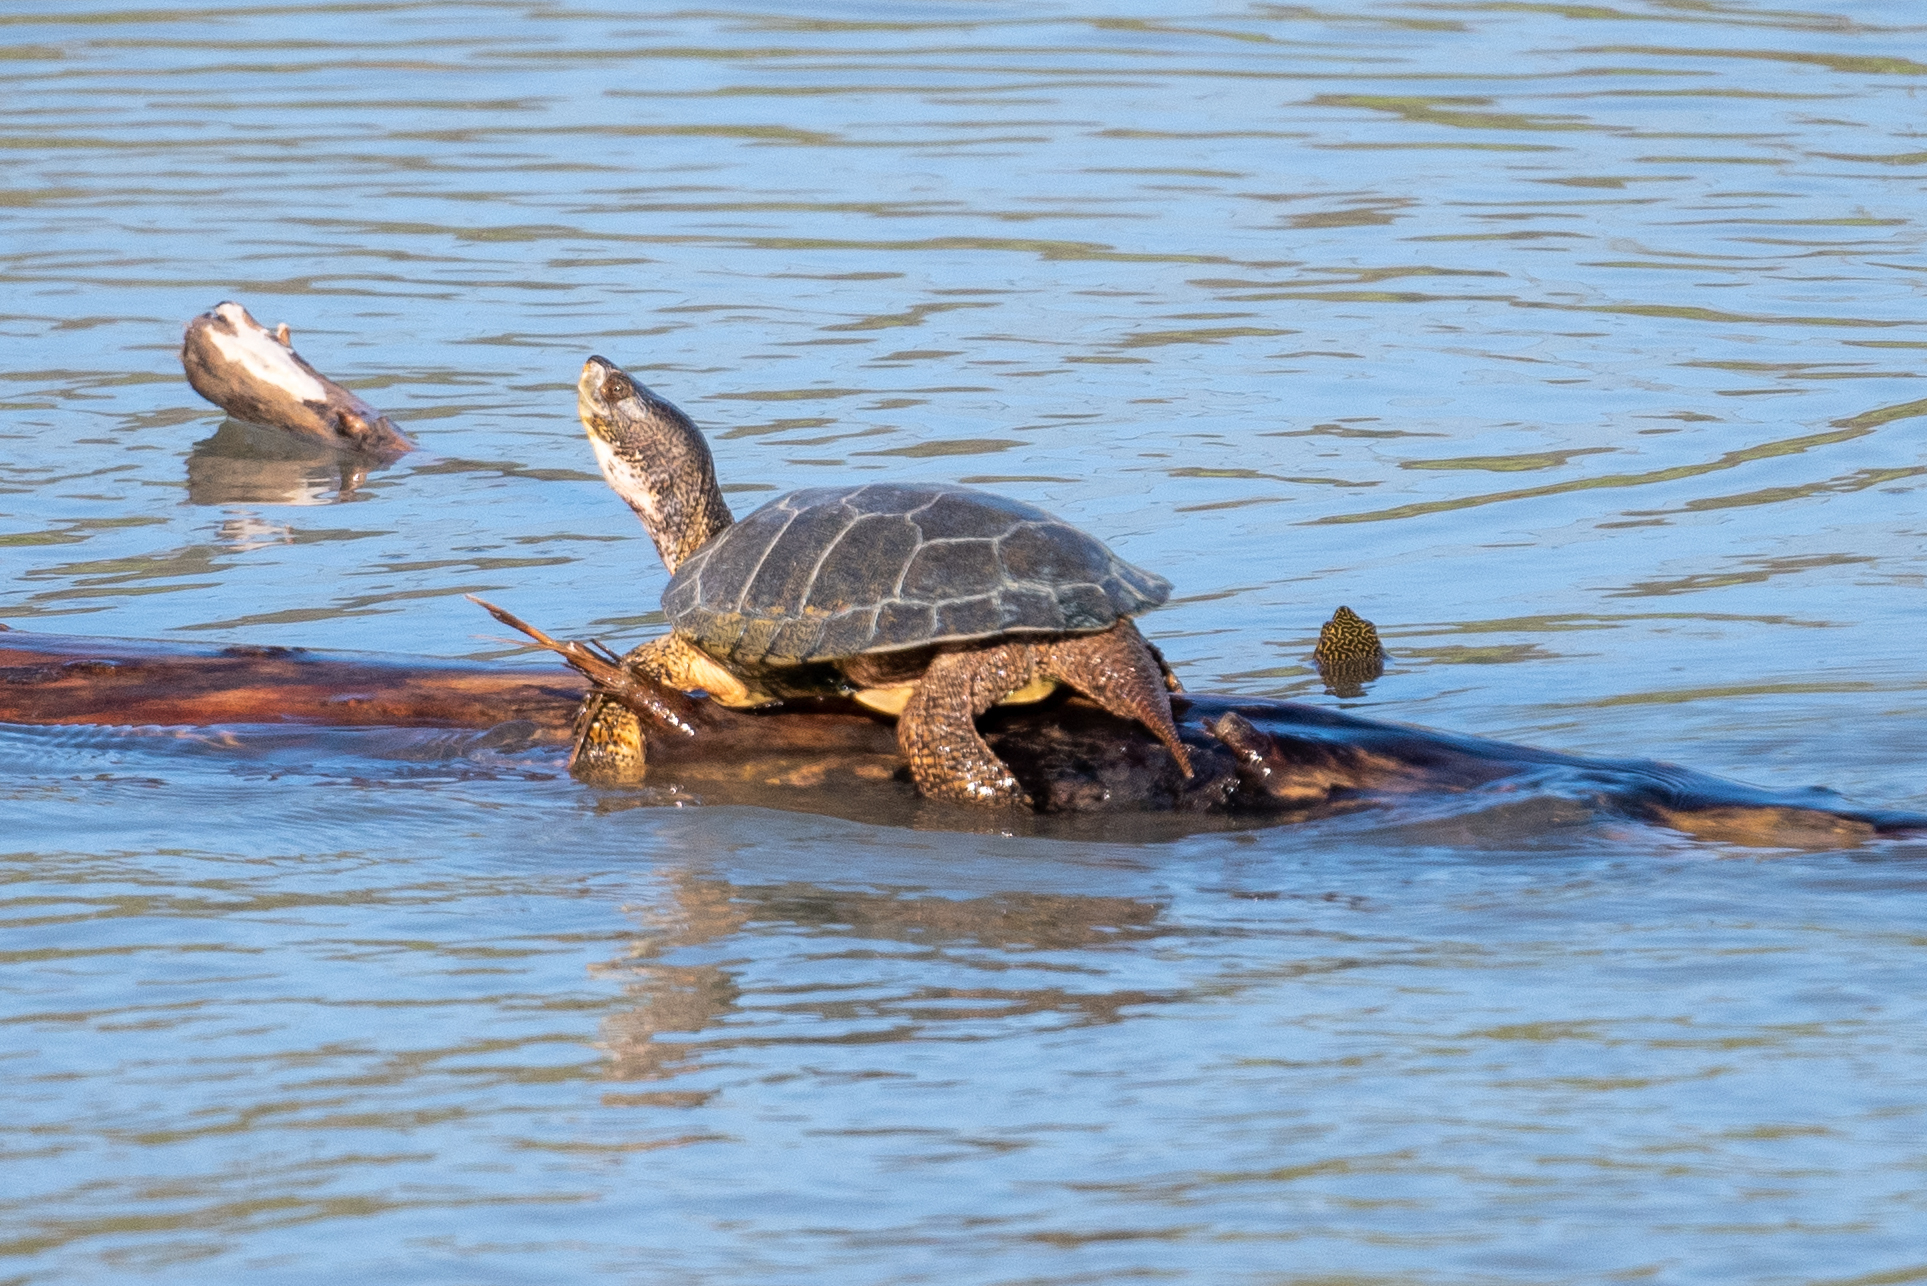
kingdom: Animalia
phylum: Chordata
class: Testudines
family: Emydidae
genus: Actinemys
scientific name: Actinemys marmorata
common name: Western pond turtle
